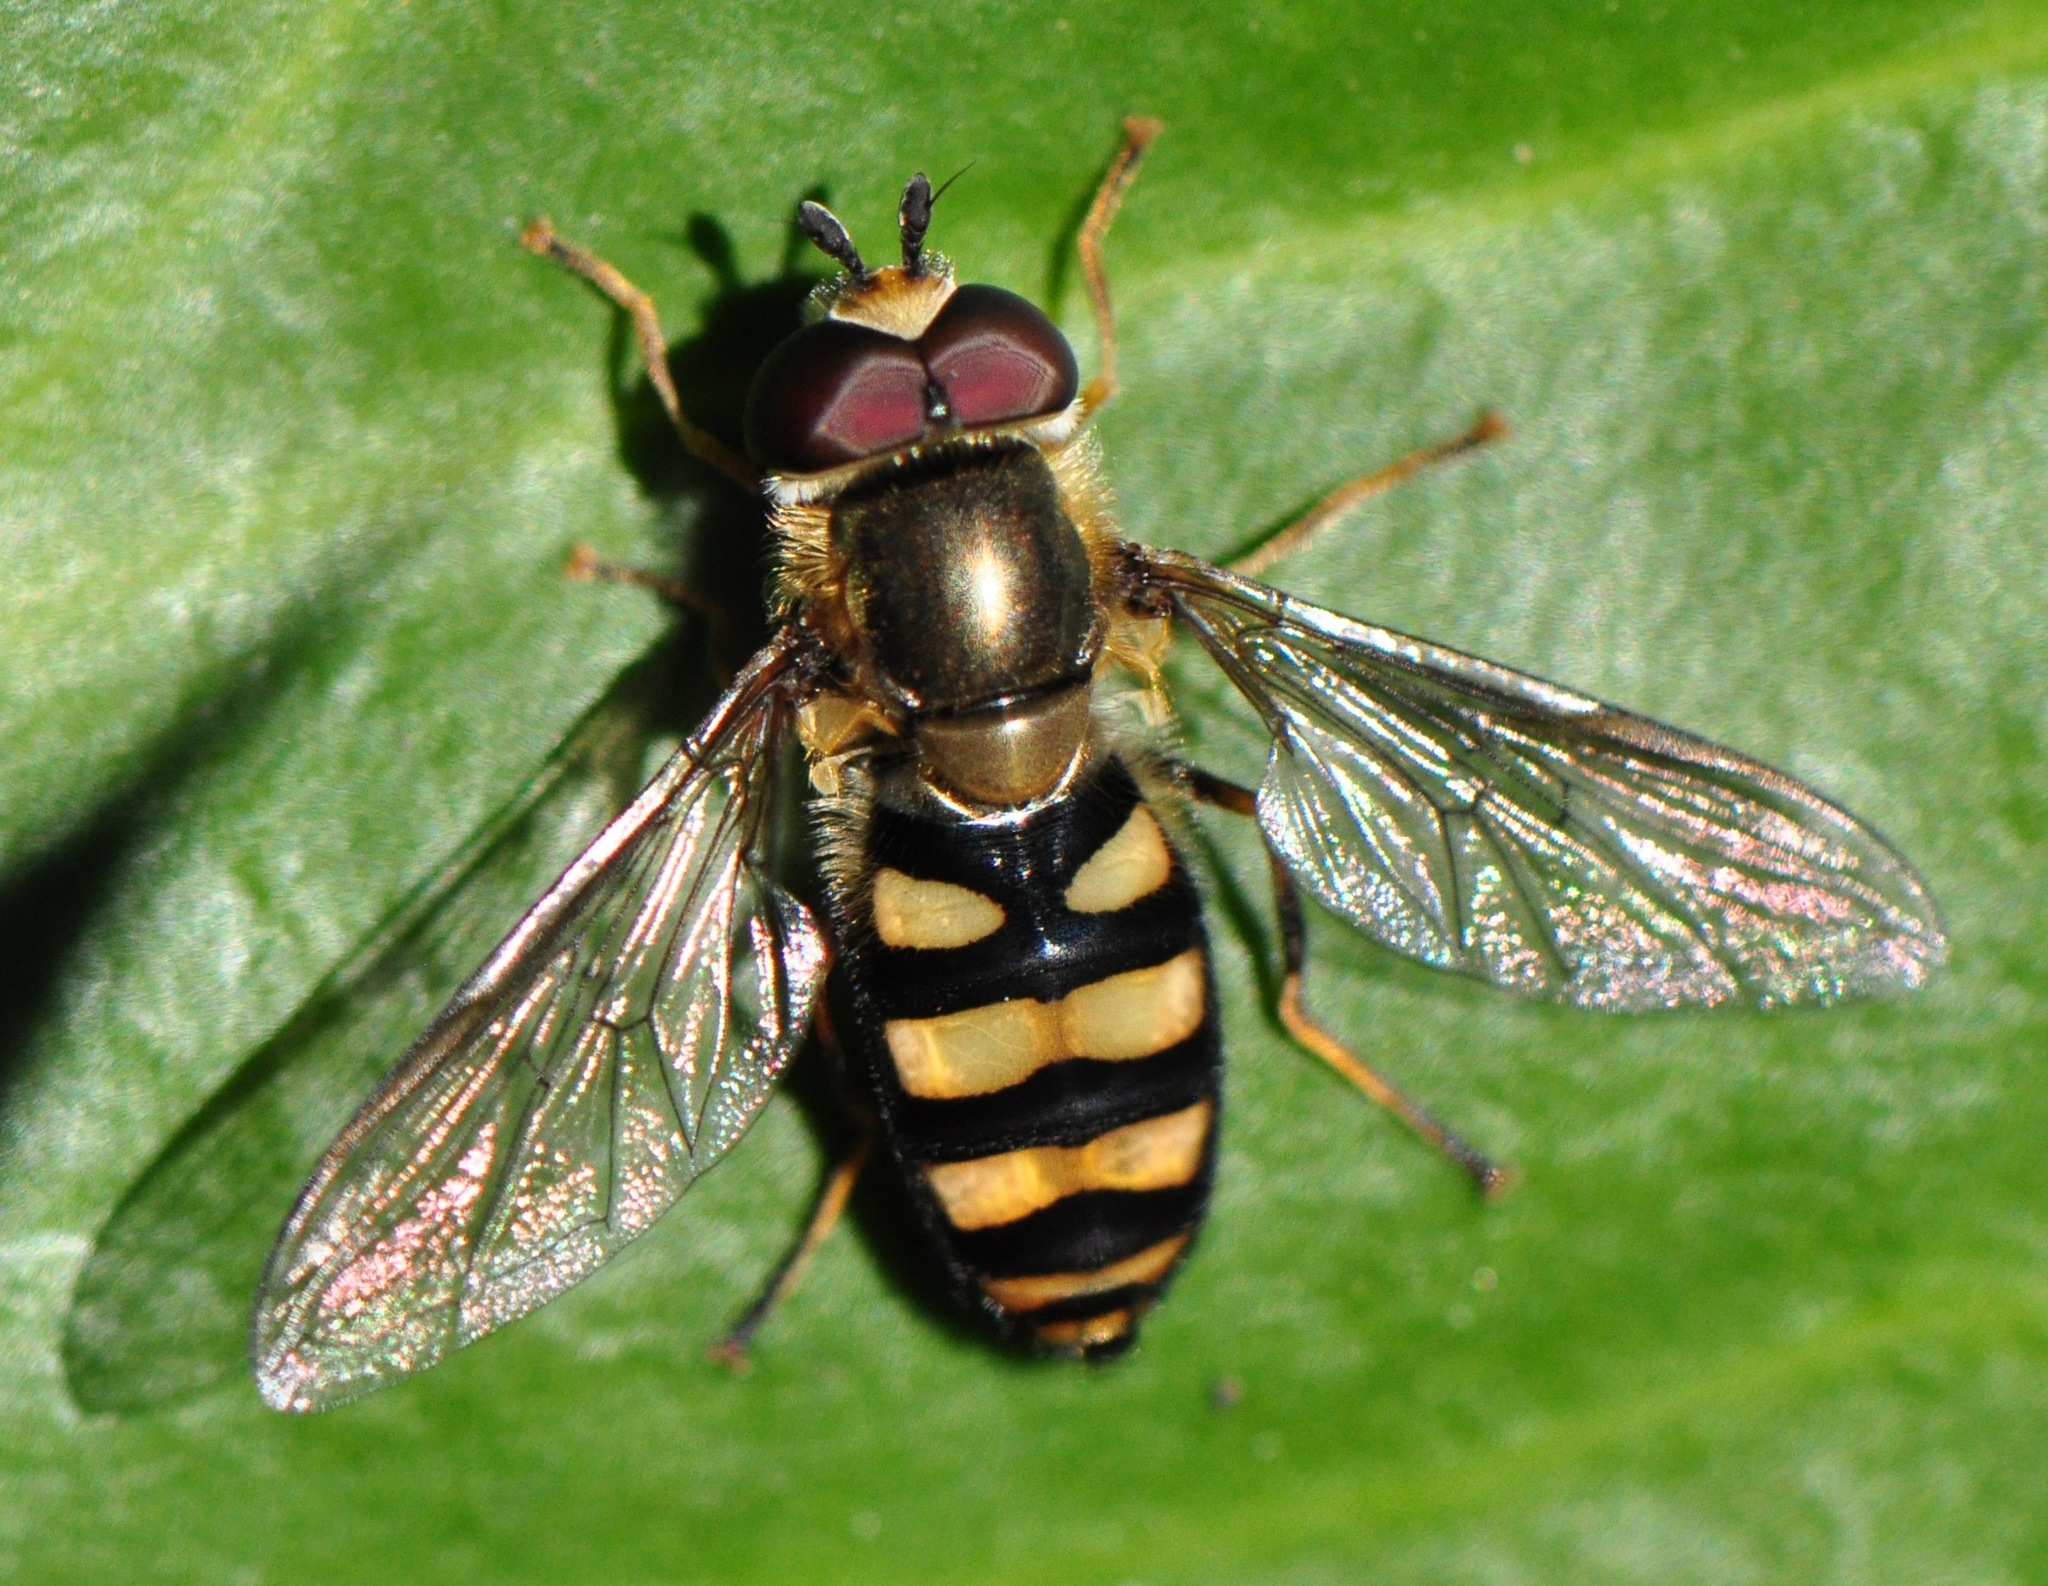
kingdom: Animalia
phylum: Arthropoda
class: Insecta
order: Diptera
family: Syrphidae
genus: Eupeodes
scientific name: Eupeodes
